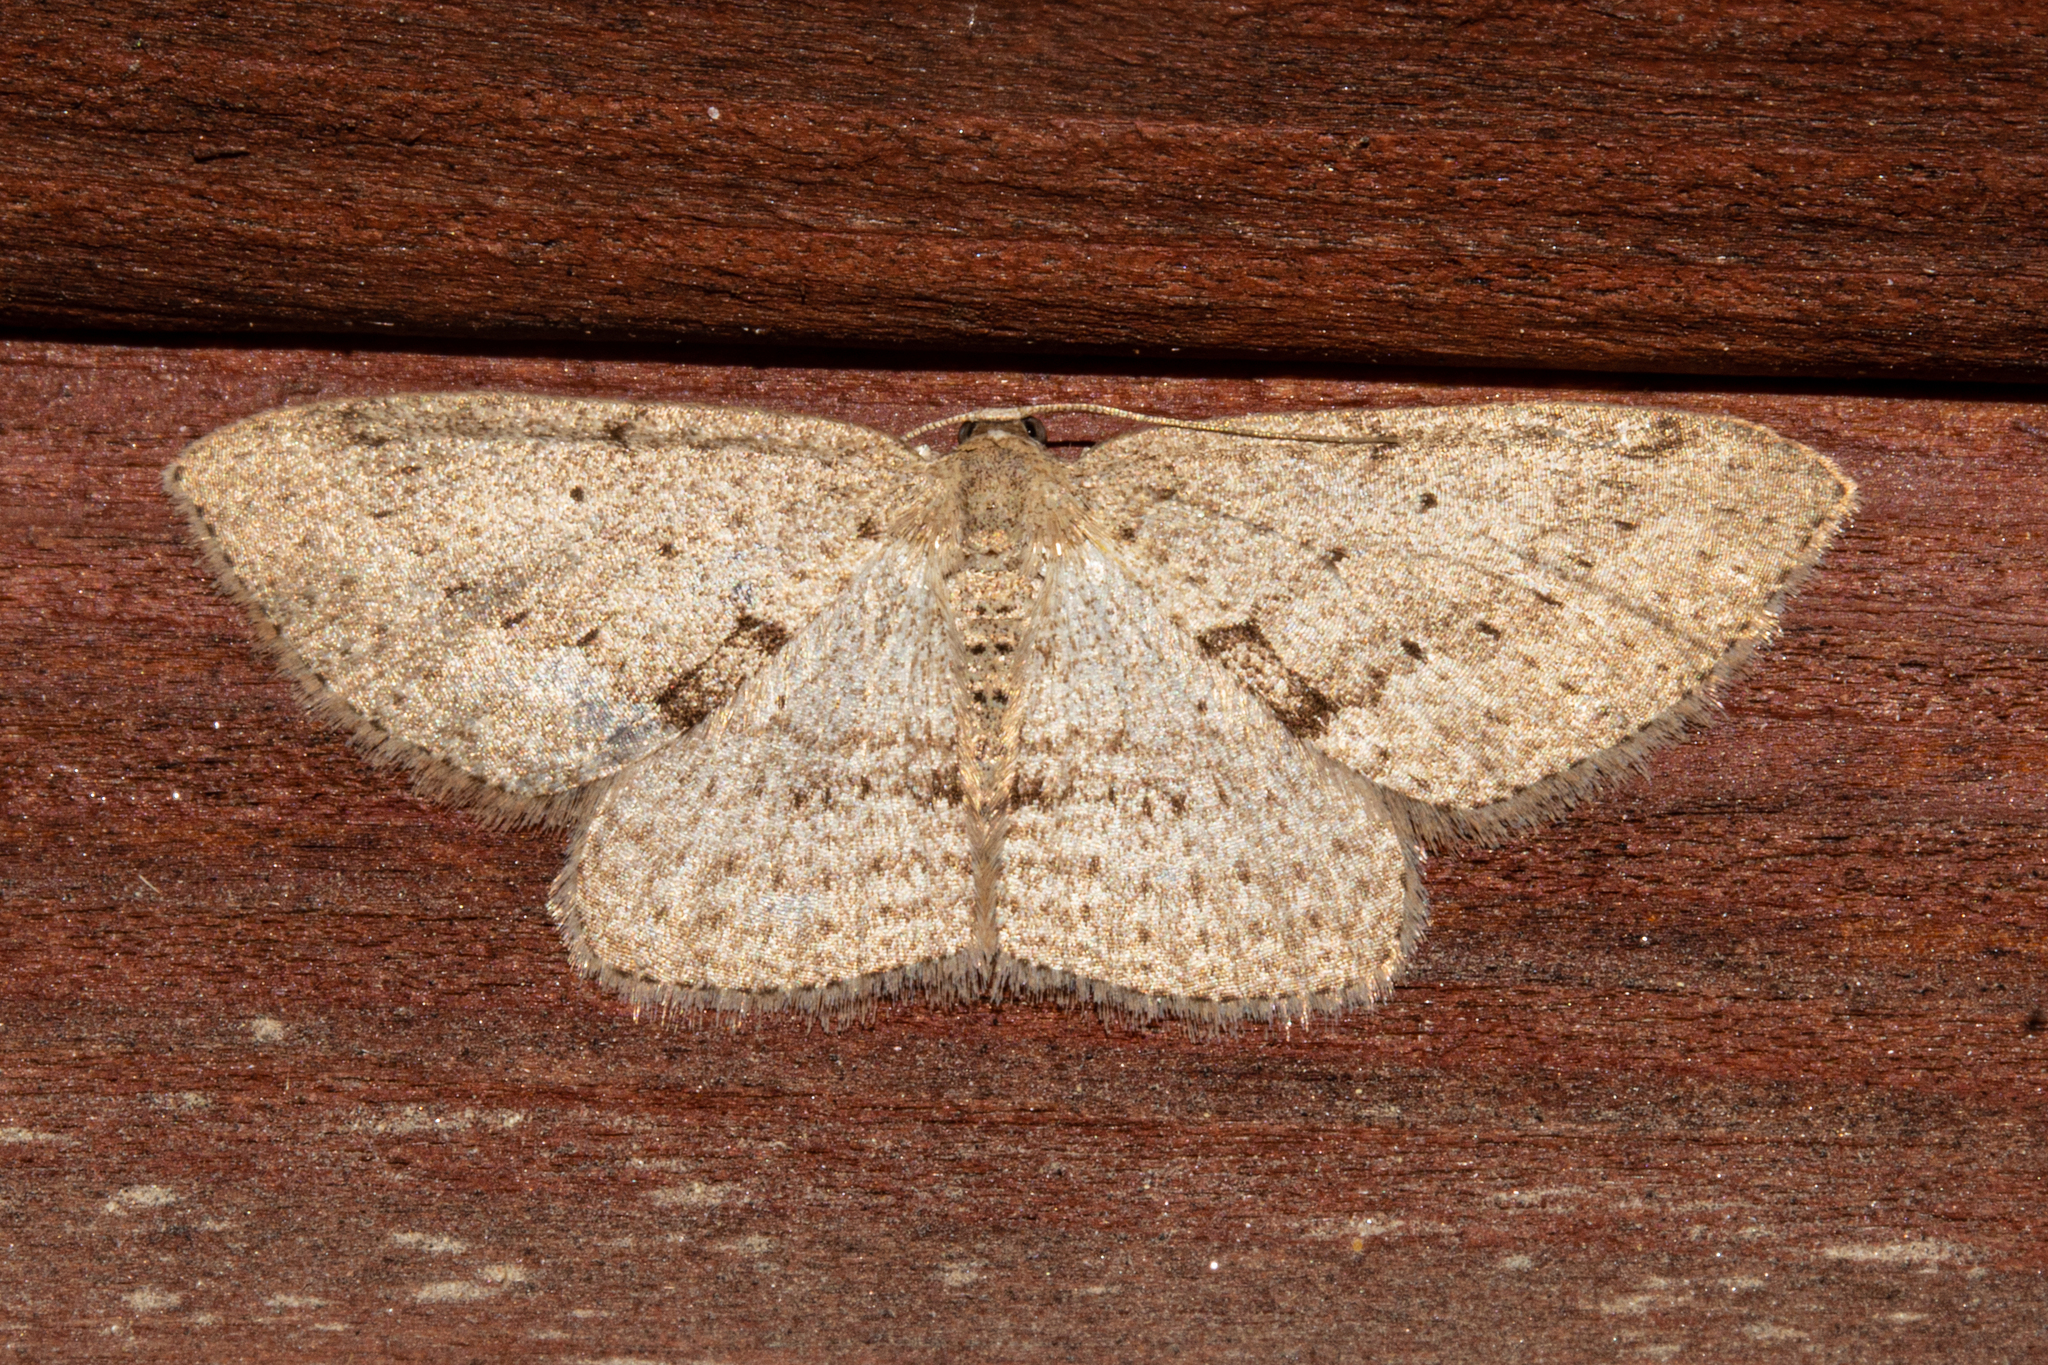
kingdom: Animalia
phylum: Arthropoda
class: Insecta
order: Lepidoptera
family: Geometridae
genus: Poecilasthena
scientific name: Poecilasthena schistaria
